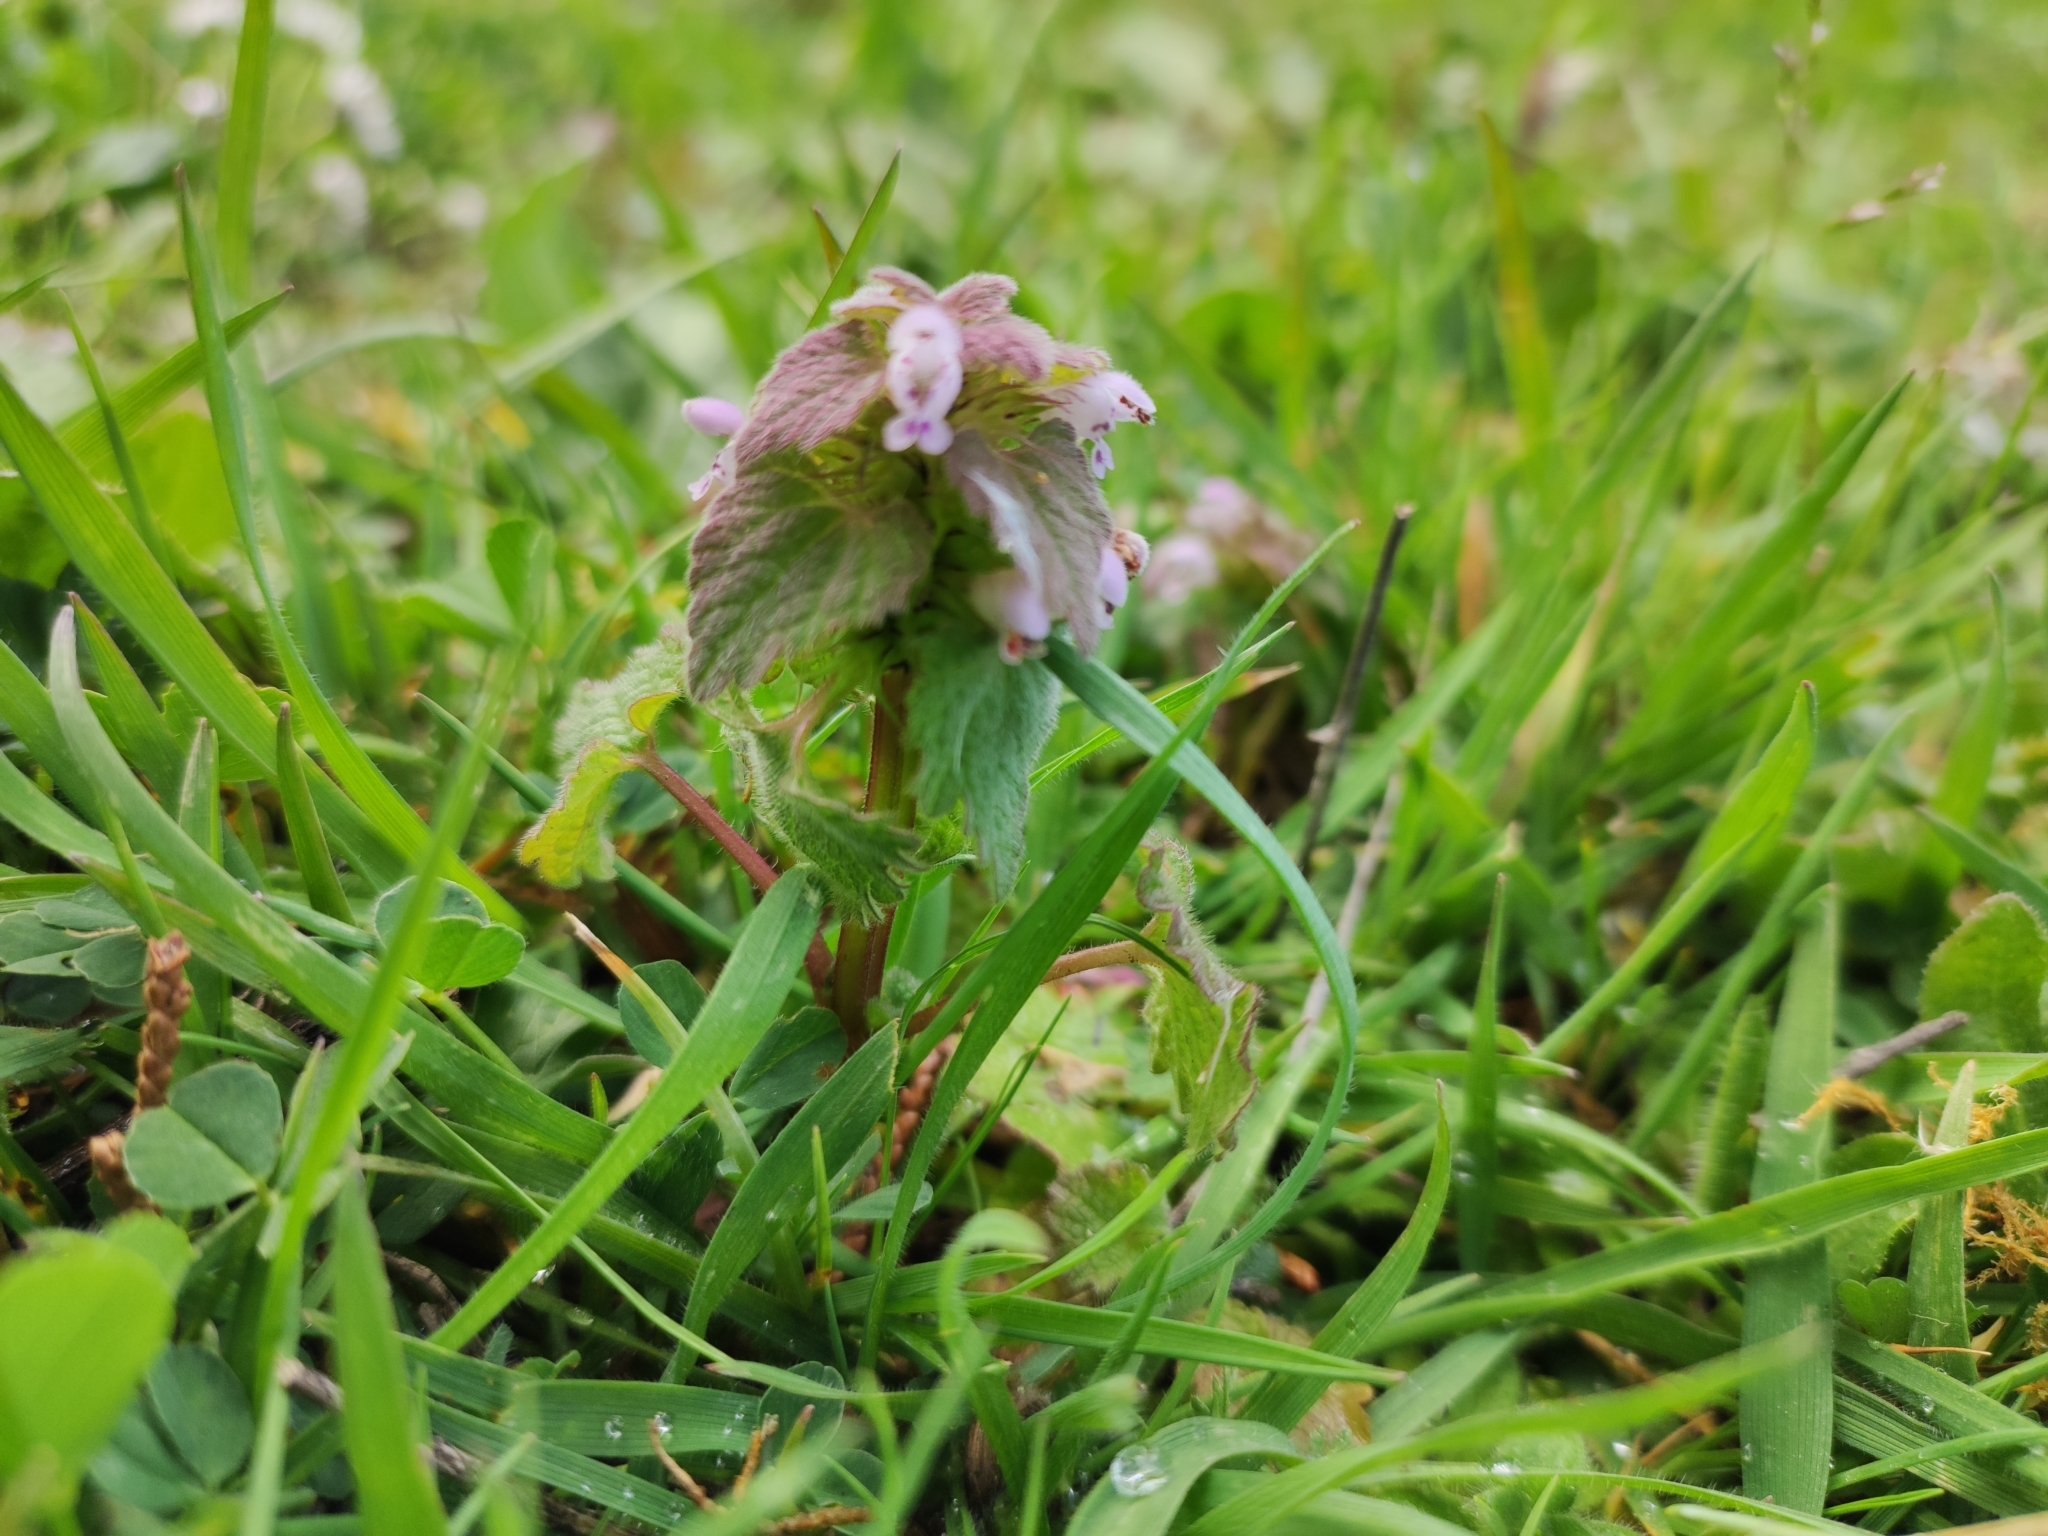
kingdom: Plantae
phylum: Tracheophyta
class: Magnoliopsida
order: Lamiales
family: Lamiaceae
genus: Lamium
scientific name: Lamium purpureum
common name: Red dead-nettle
